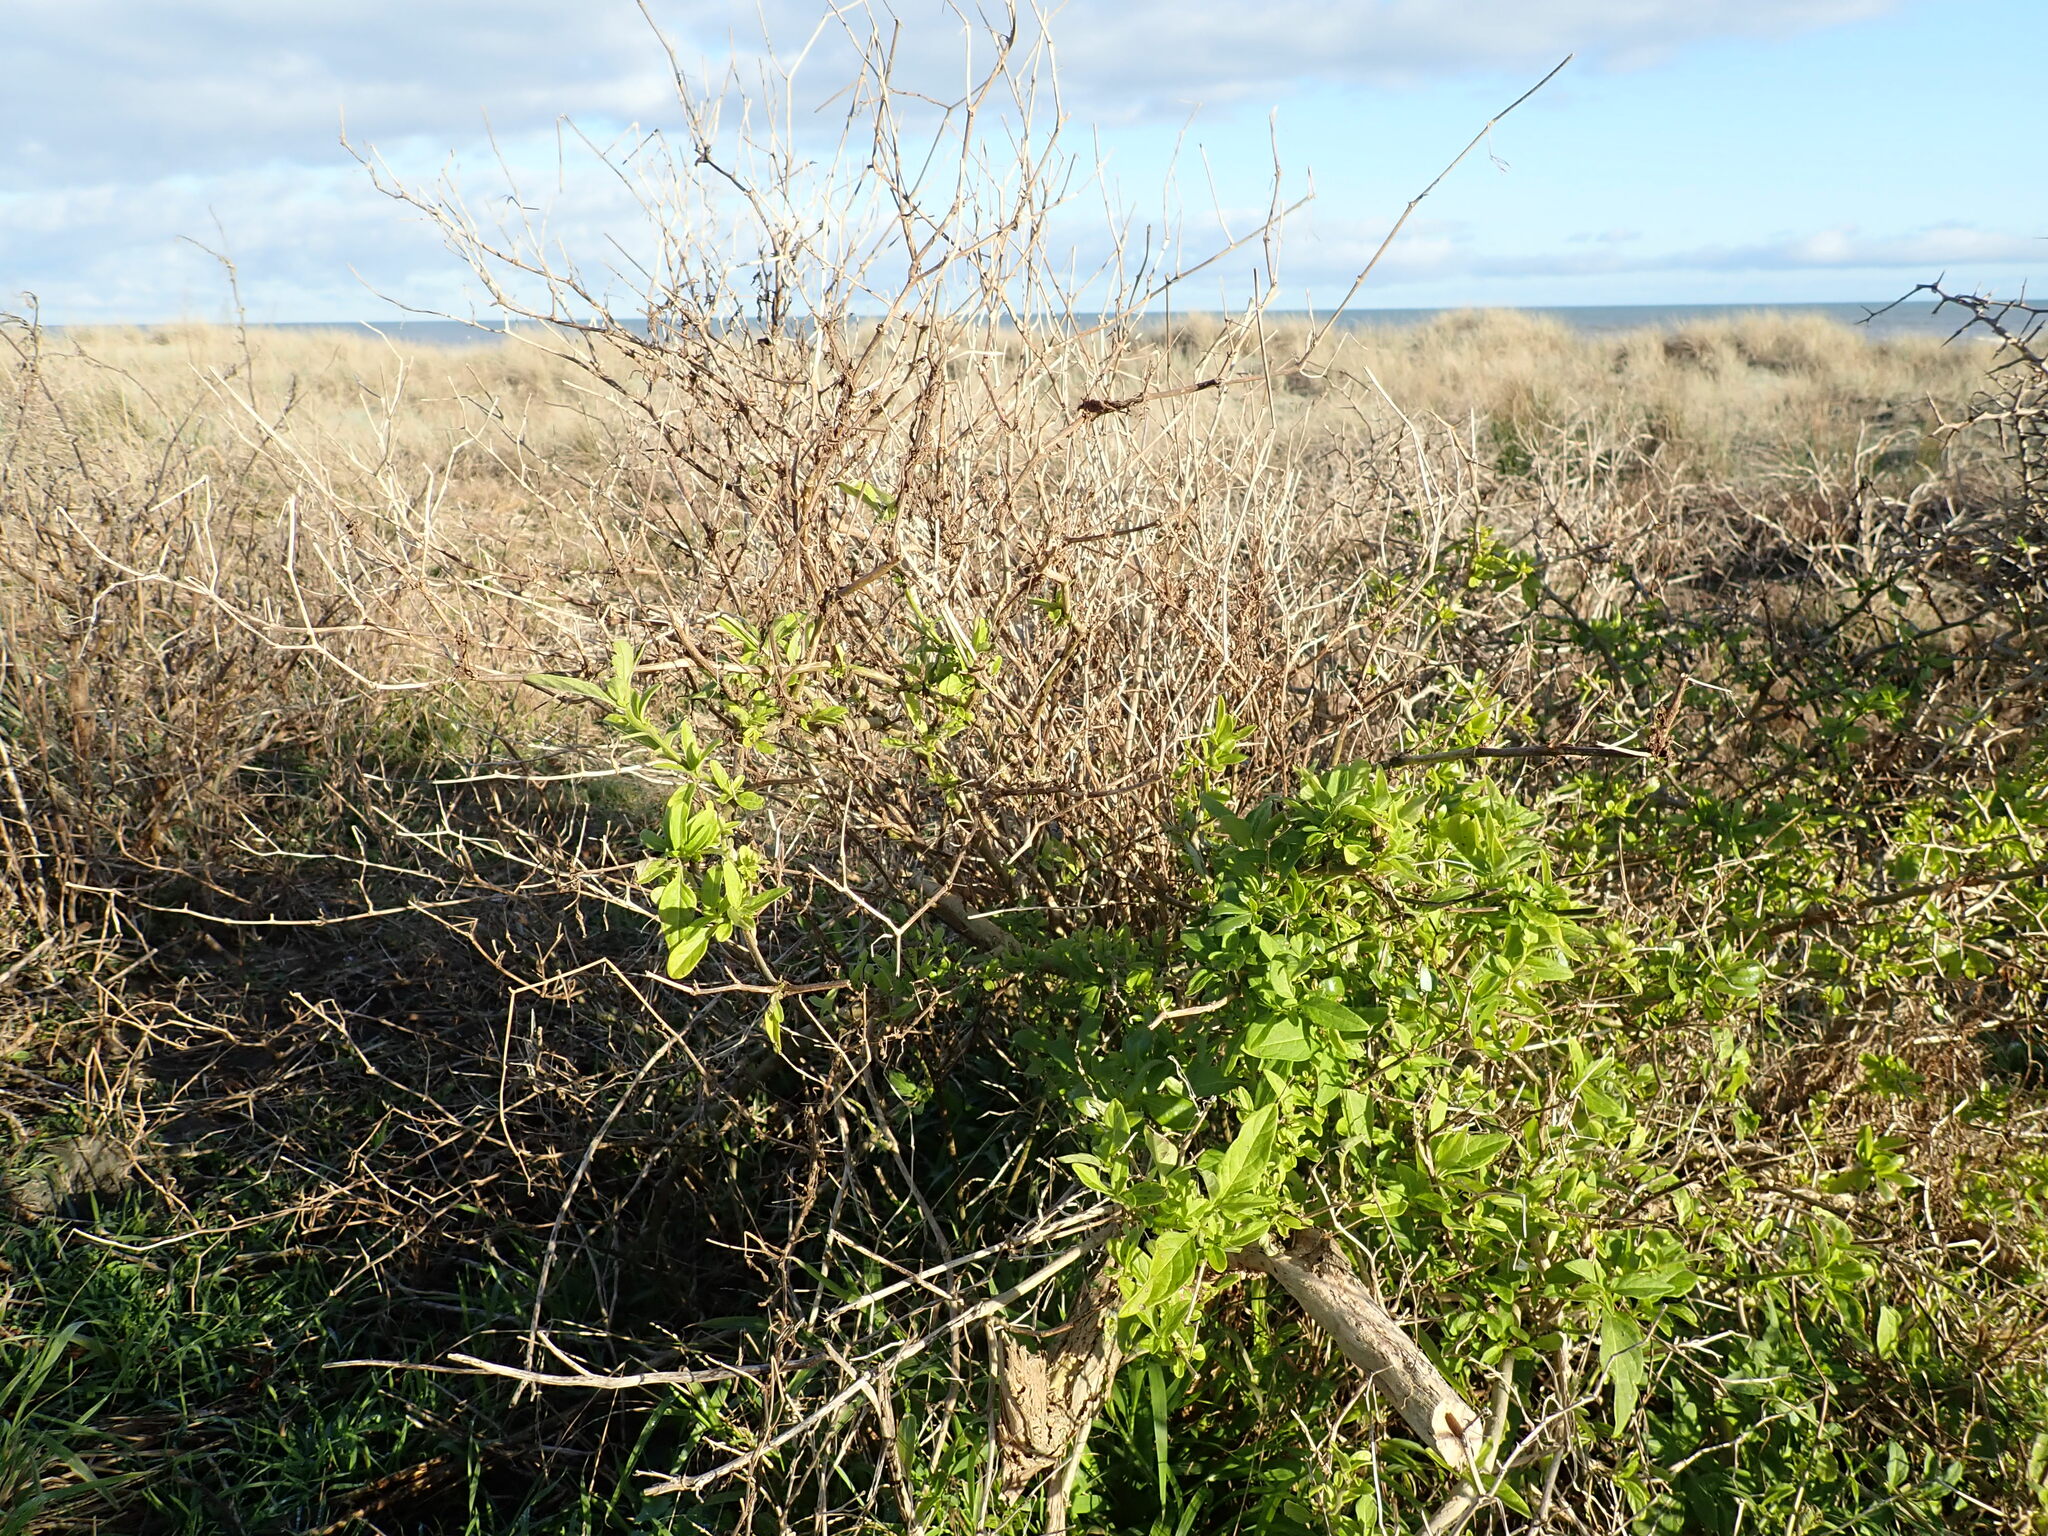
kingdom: Plantae
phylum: Tracheophyta
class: Magnoliopsida
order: Solanales
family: Solanaceae
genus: Solanum
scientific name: Solanum chenopodioides
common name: Tall nightshade
